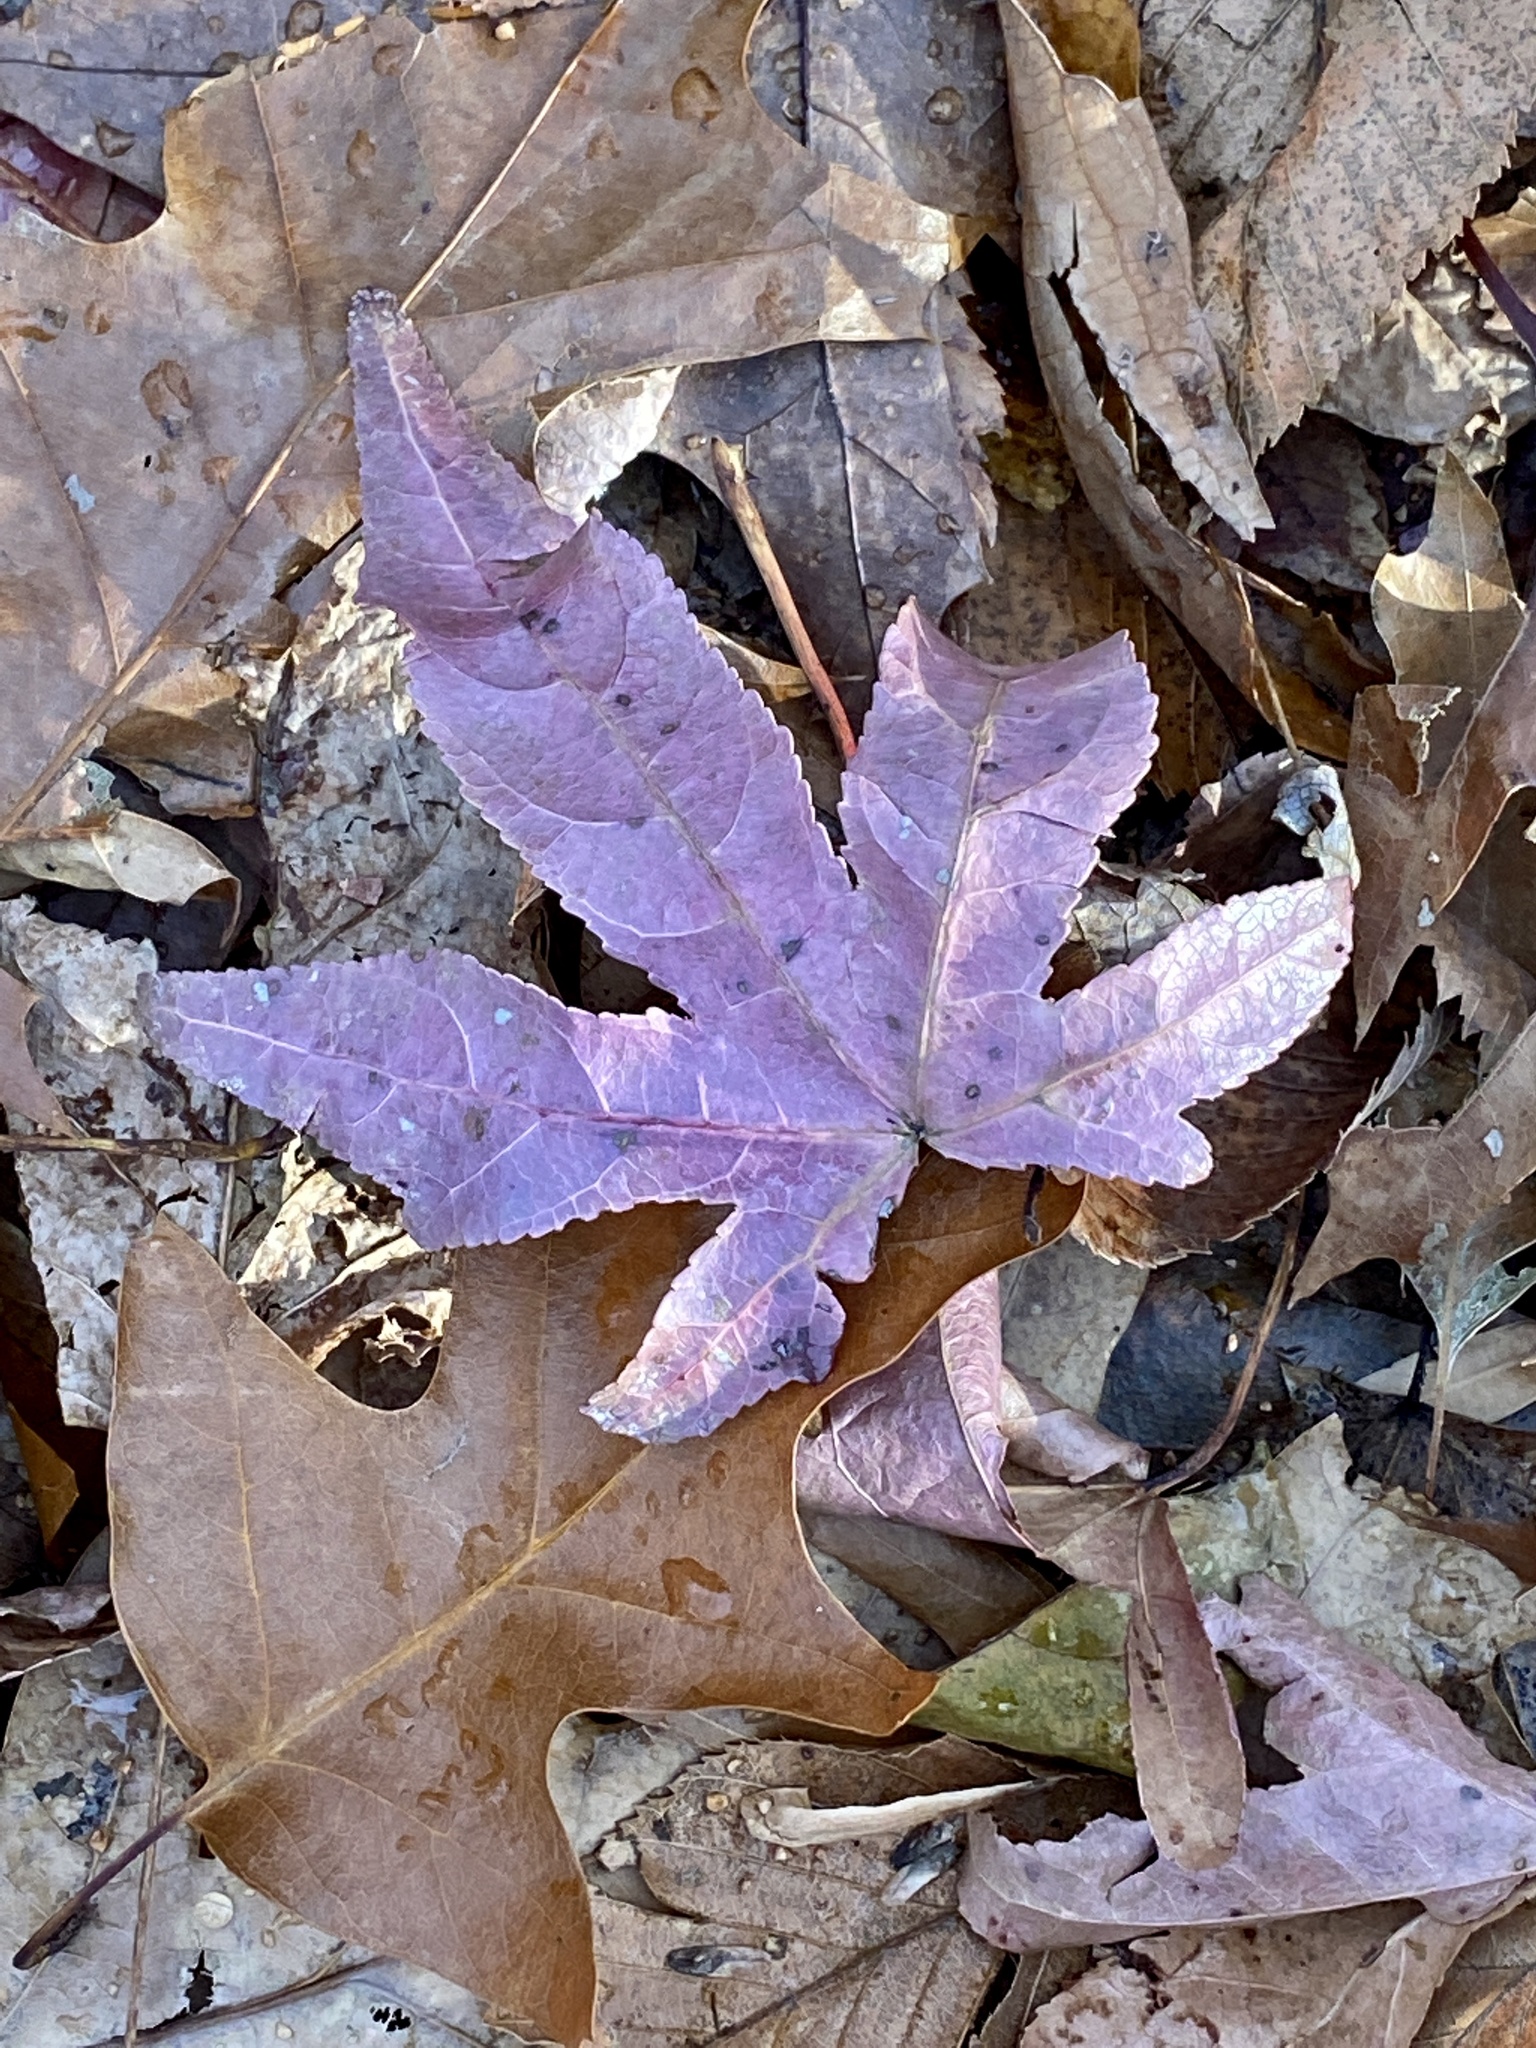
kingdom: Plantae
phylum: Tracheophyta
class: Magnoliopsida
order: Saxifragales
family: Altingiaceae
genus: Liquidambar
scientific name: Liquidambar styraciflua
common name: Sweet gum
